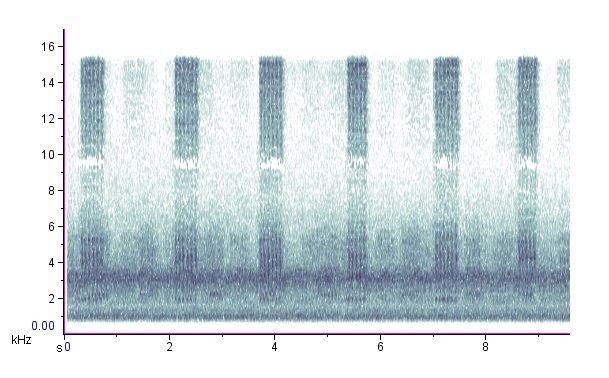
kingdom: Animalia
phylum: Arthropoda
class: Insecta
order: Orthoptera
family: Tettigoniidae
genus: Pterophylla
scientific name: Pterophylla camellifolia
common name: Common true katydid
